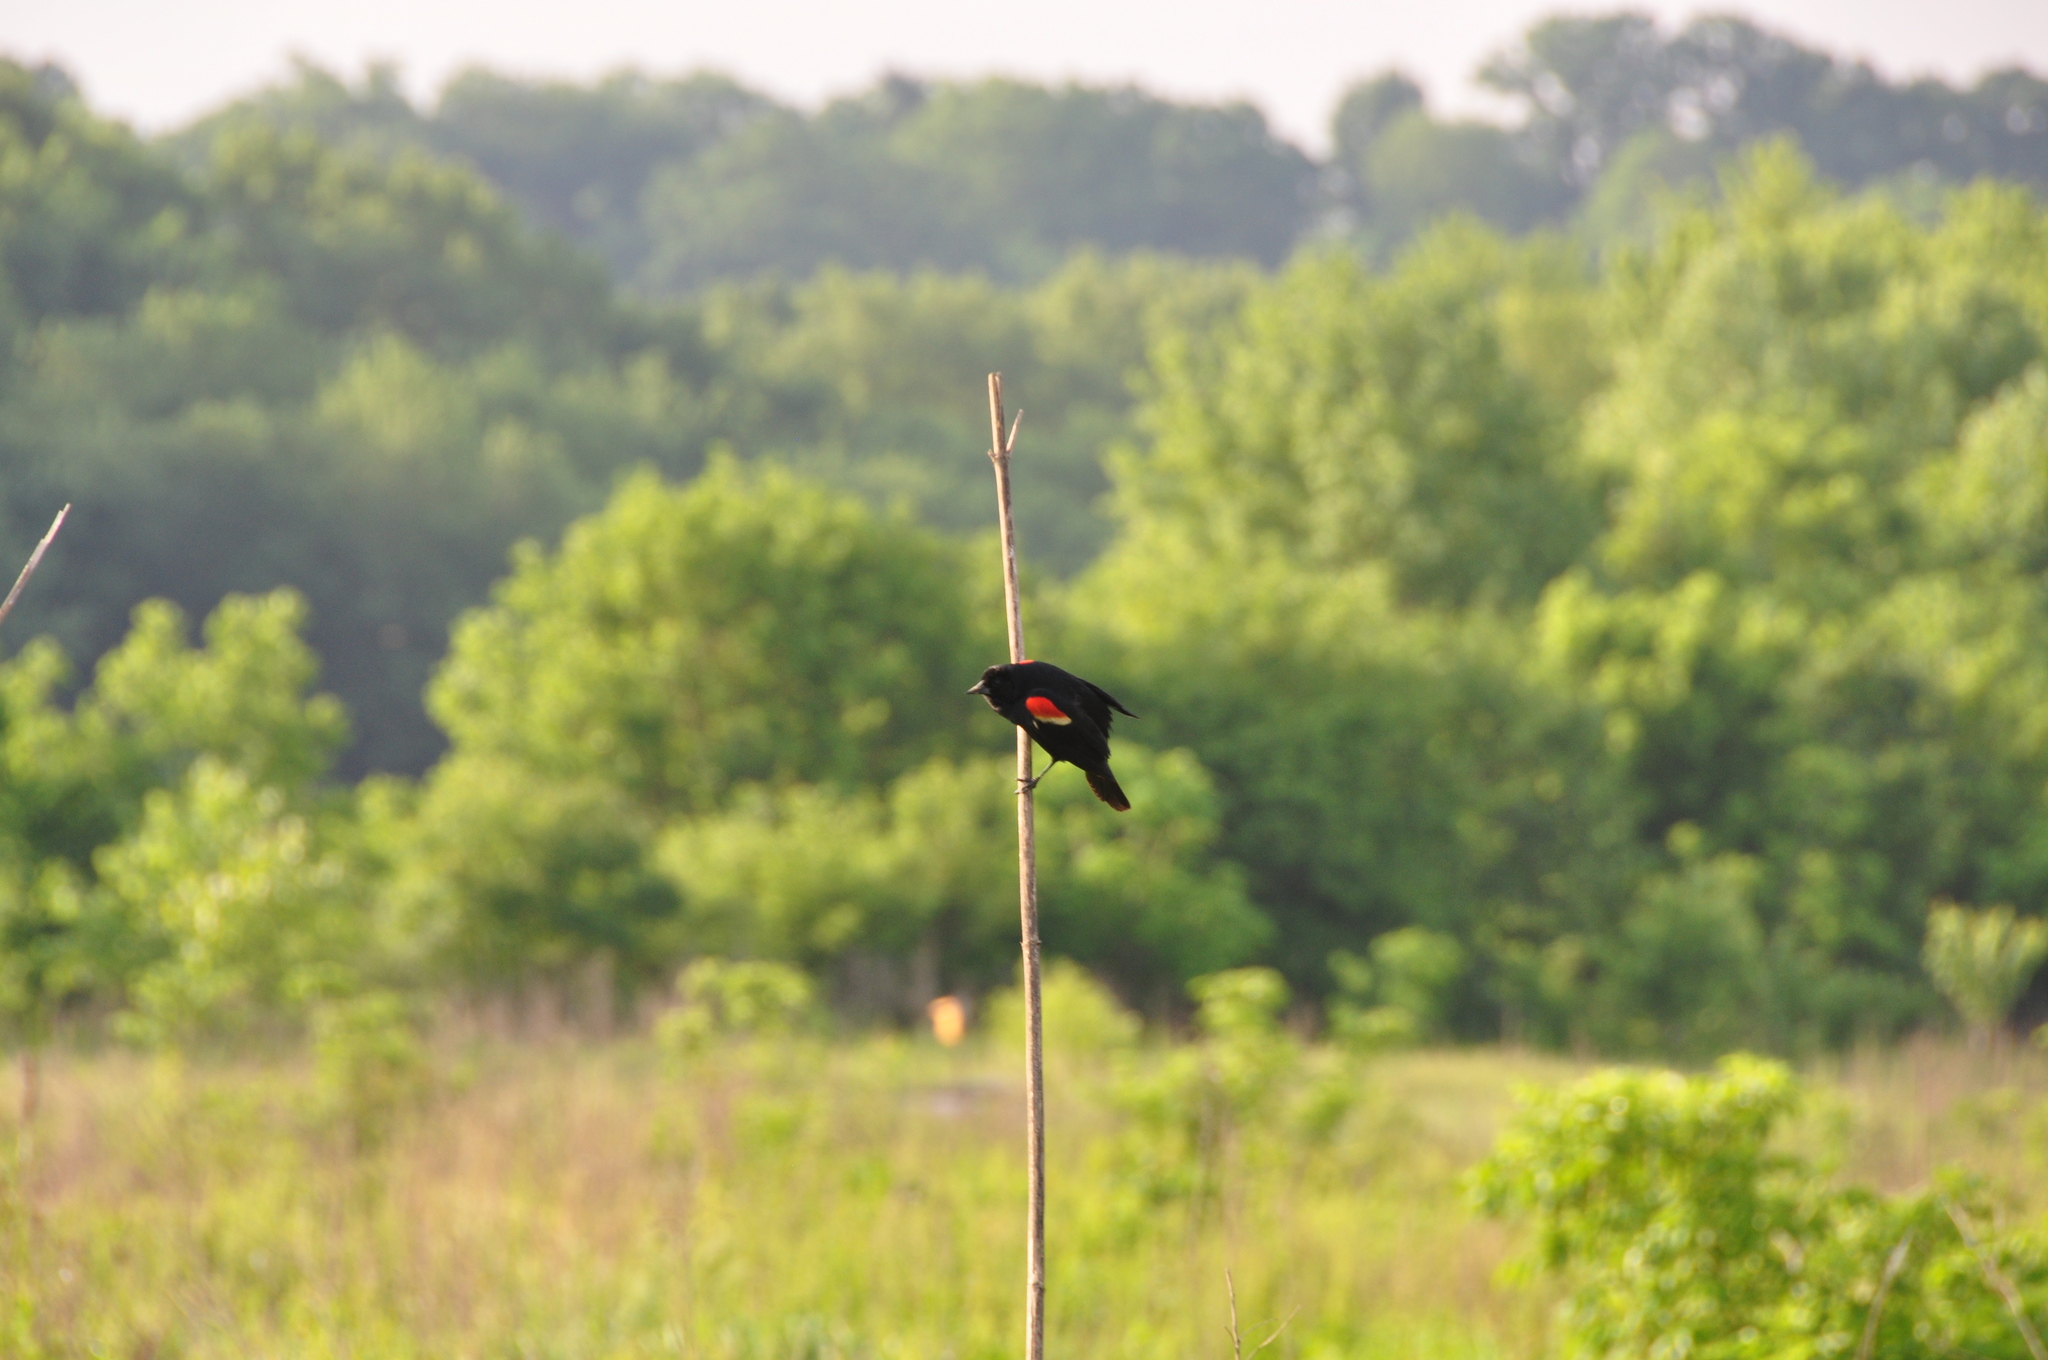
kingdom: Animalia
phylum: Chordata
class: Aves
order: Passeriformes
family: Icteridae
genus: Agelaius
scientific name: Agelaius phoeniceus
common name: Red-winged blackbird
